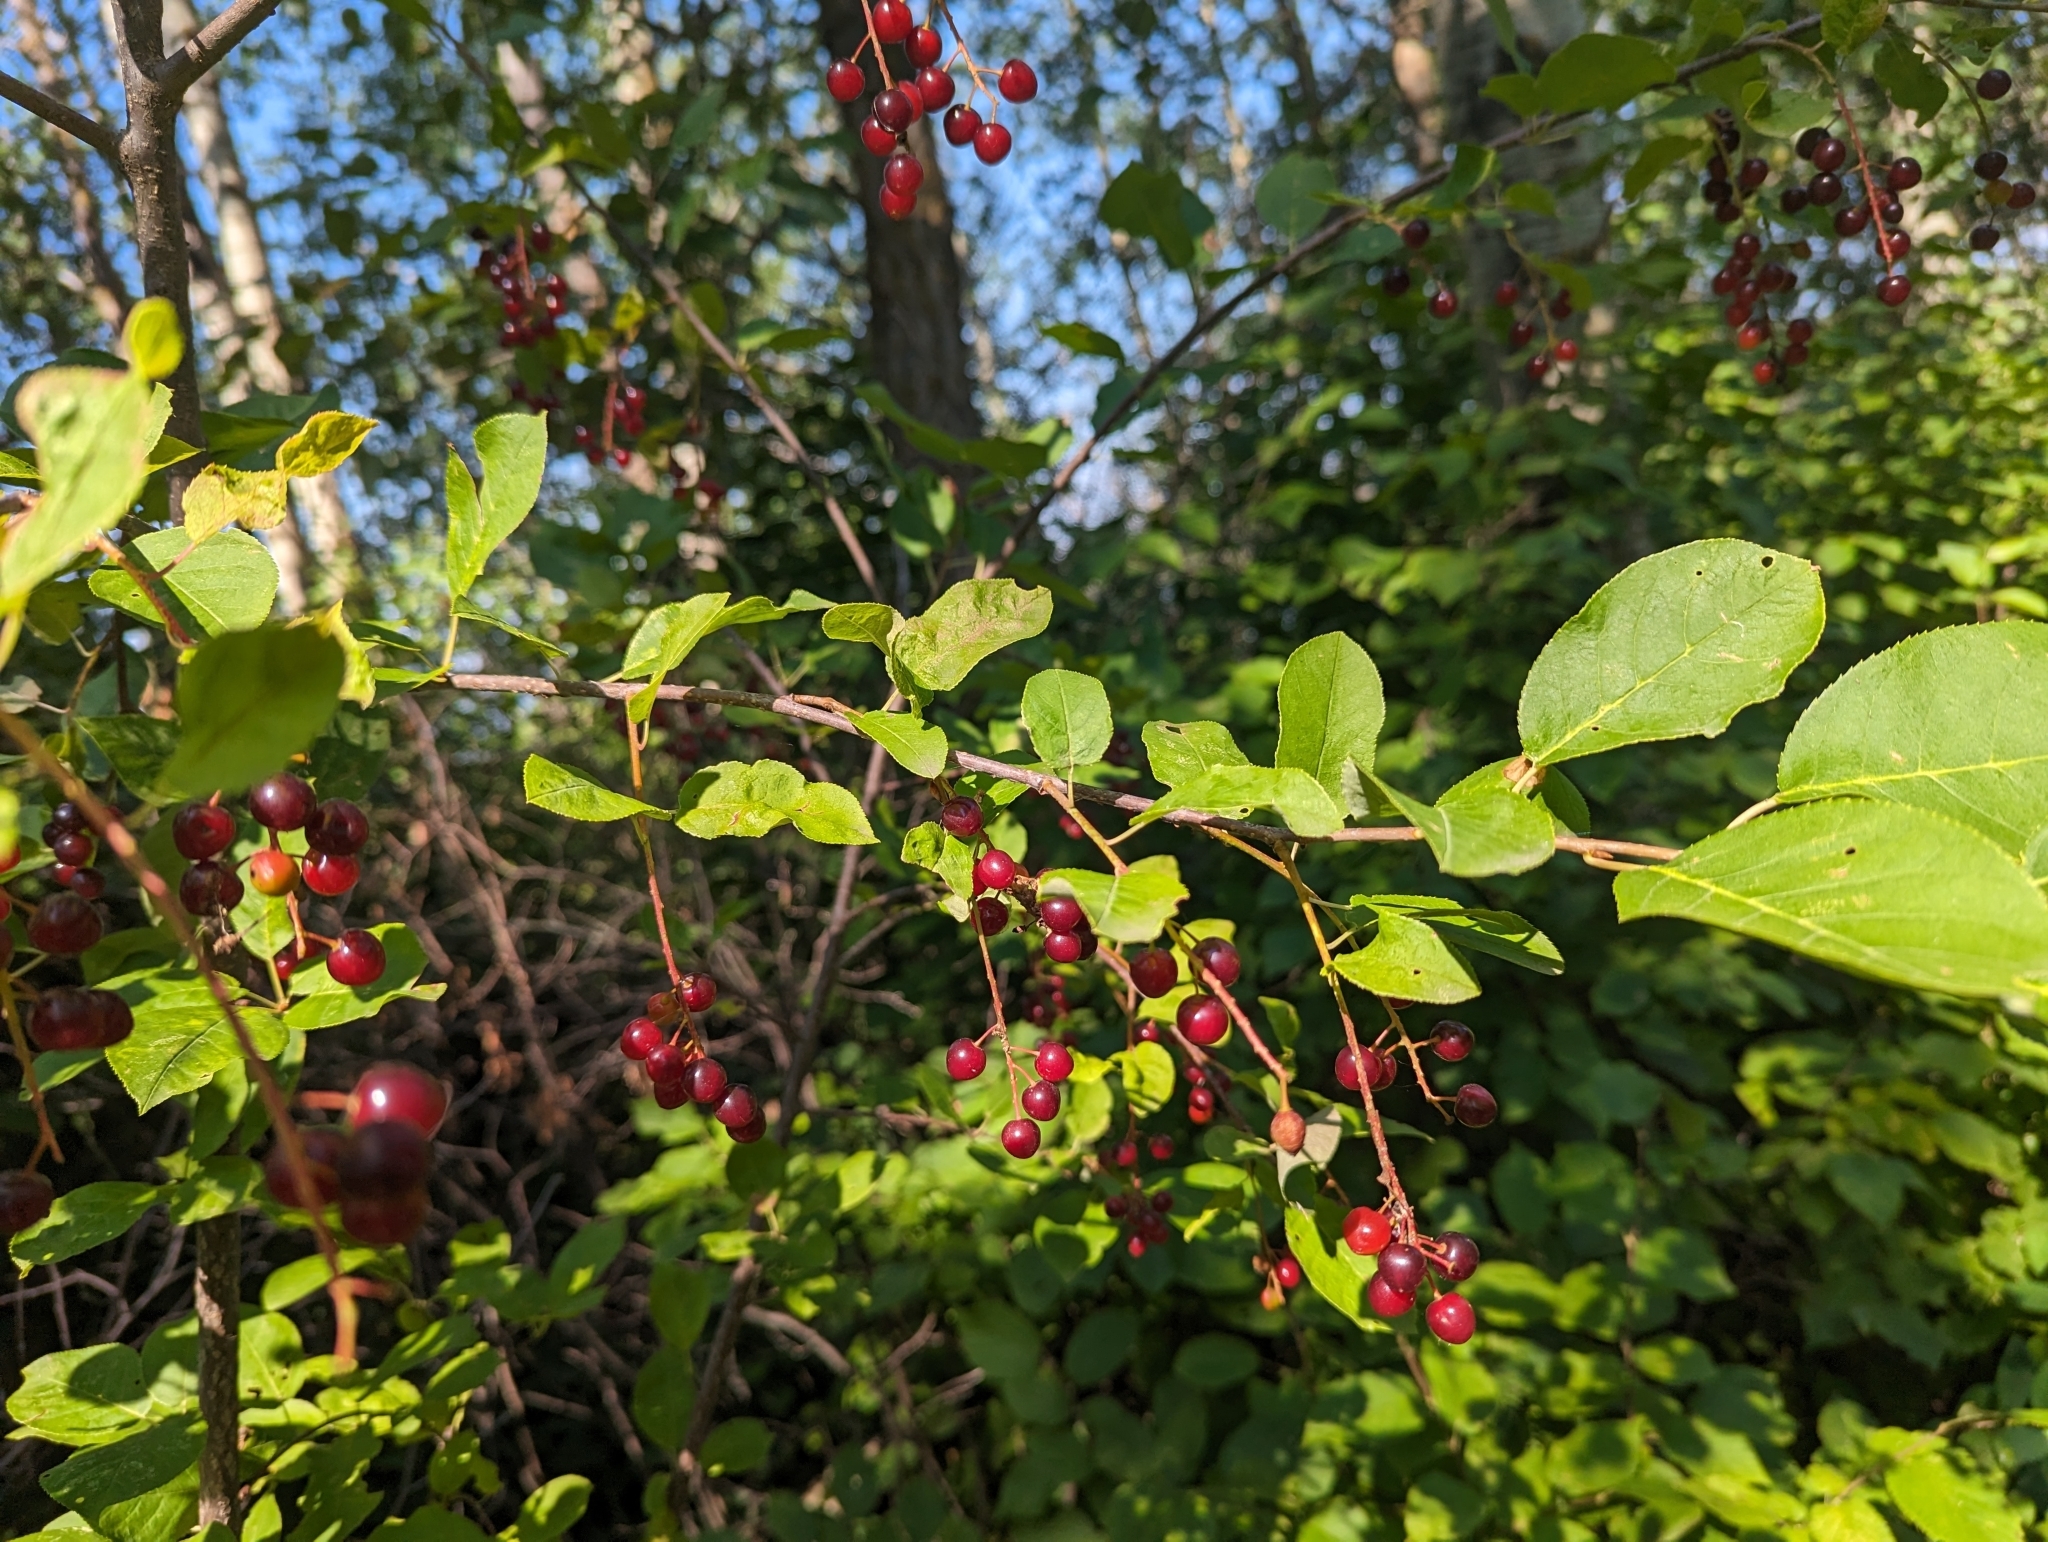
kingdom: Plantae
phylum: Tracheophyta
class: Magnoliopsida
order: Rosales
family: Rosaceae
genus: Prunus
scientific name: Prunus virginiana
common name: Chokecherry
